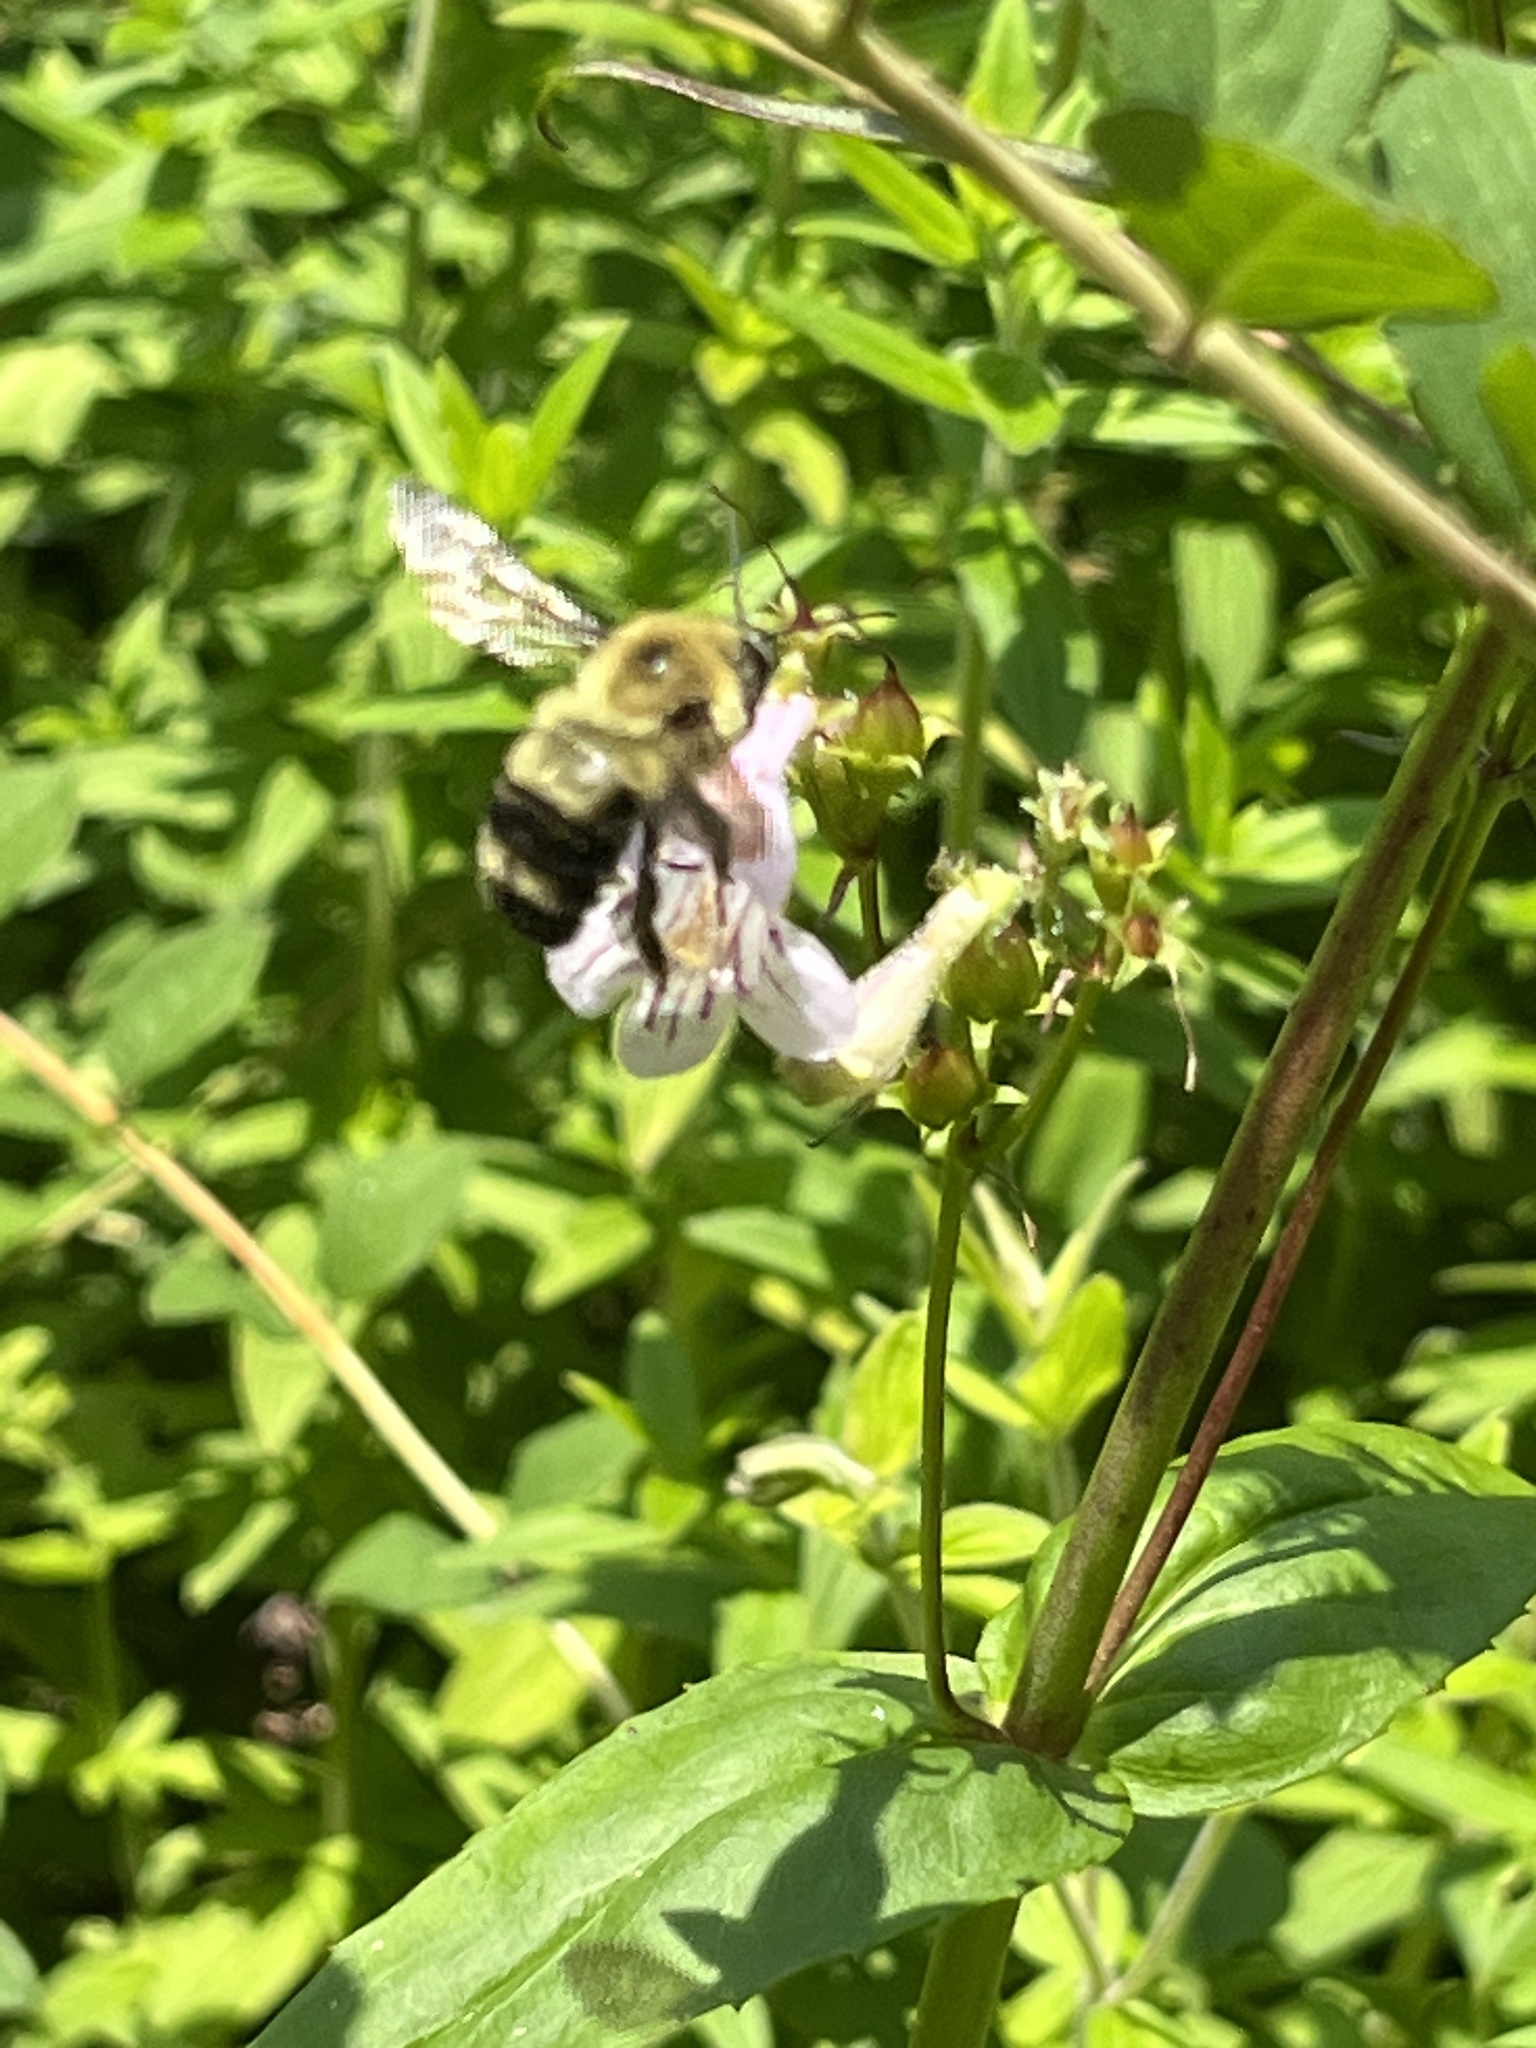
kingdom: Animalia
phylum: Arthropoda
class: Insecta
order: Hymenoptera
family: Apidae
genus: Bombus
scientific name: Bombus bimaculatus
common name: Two-spotted bumble bee
